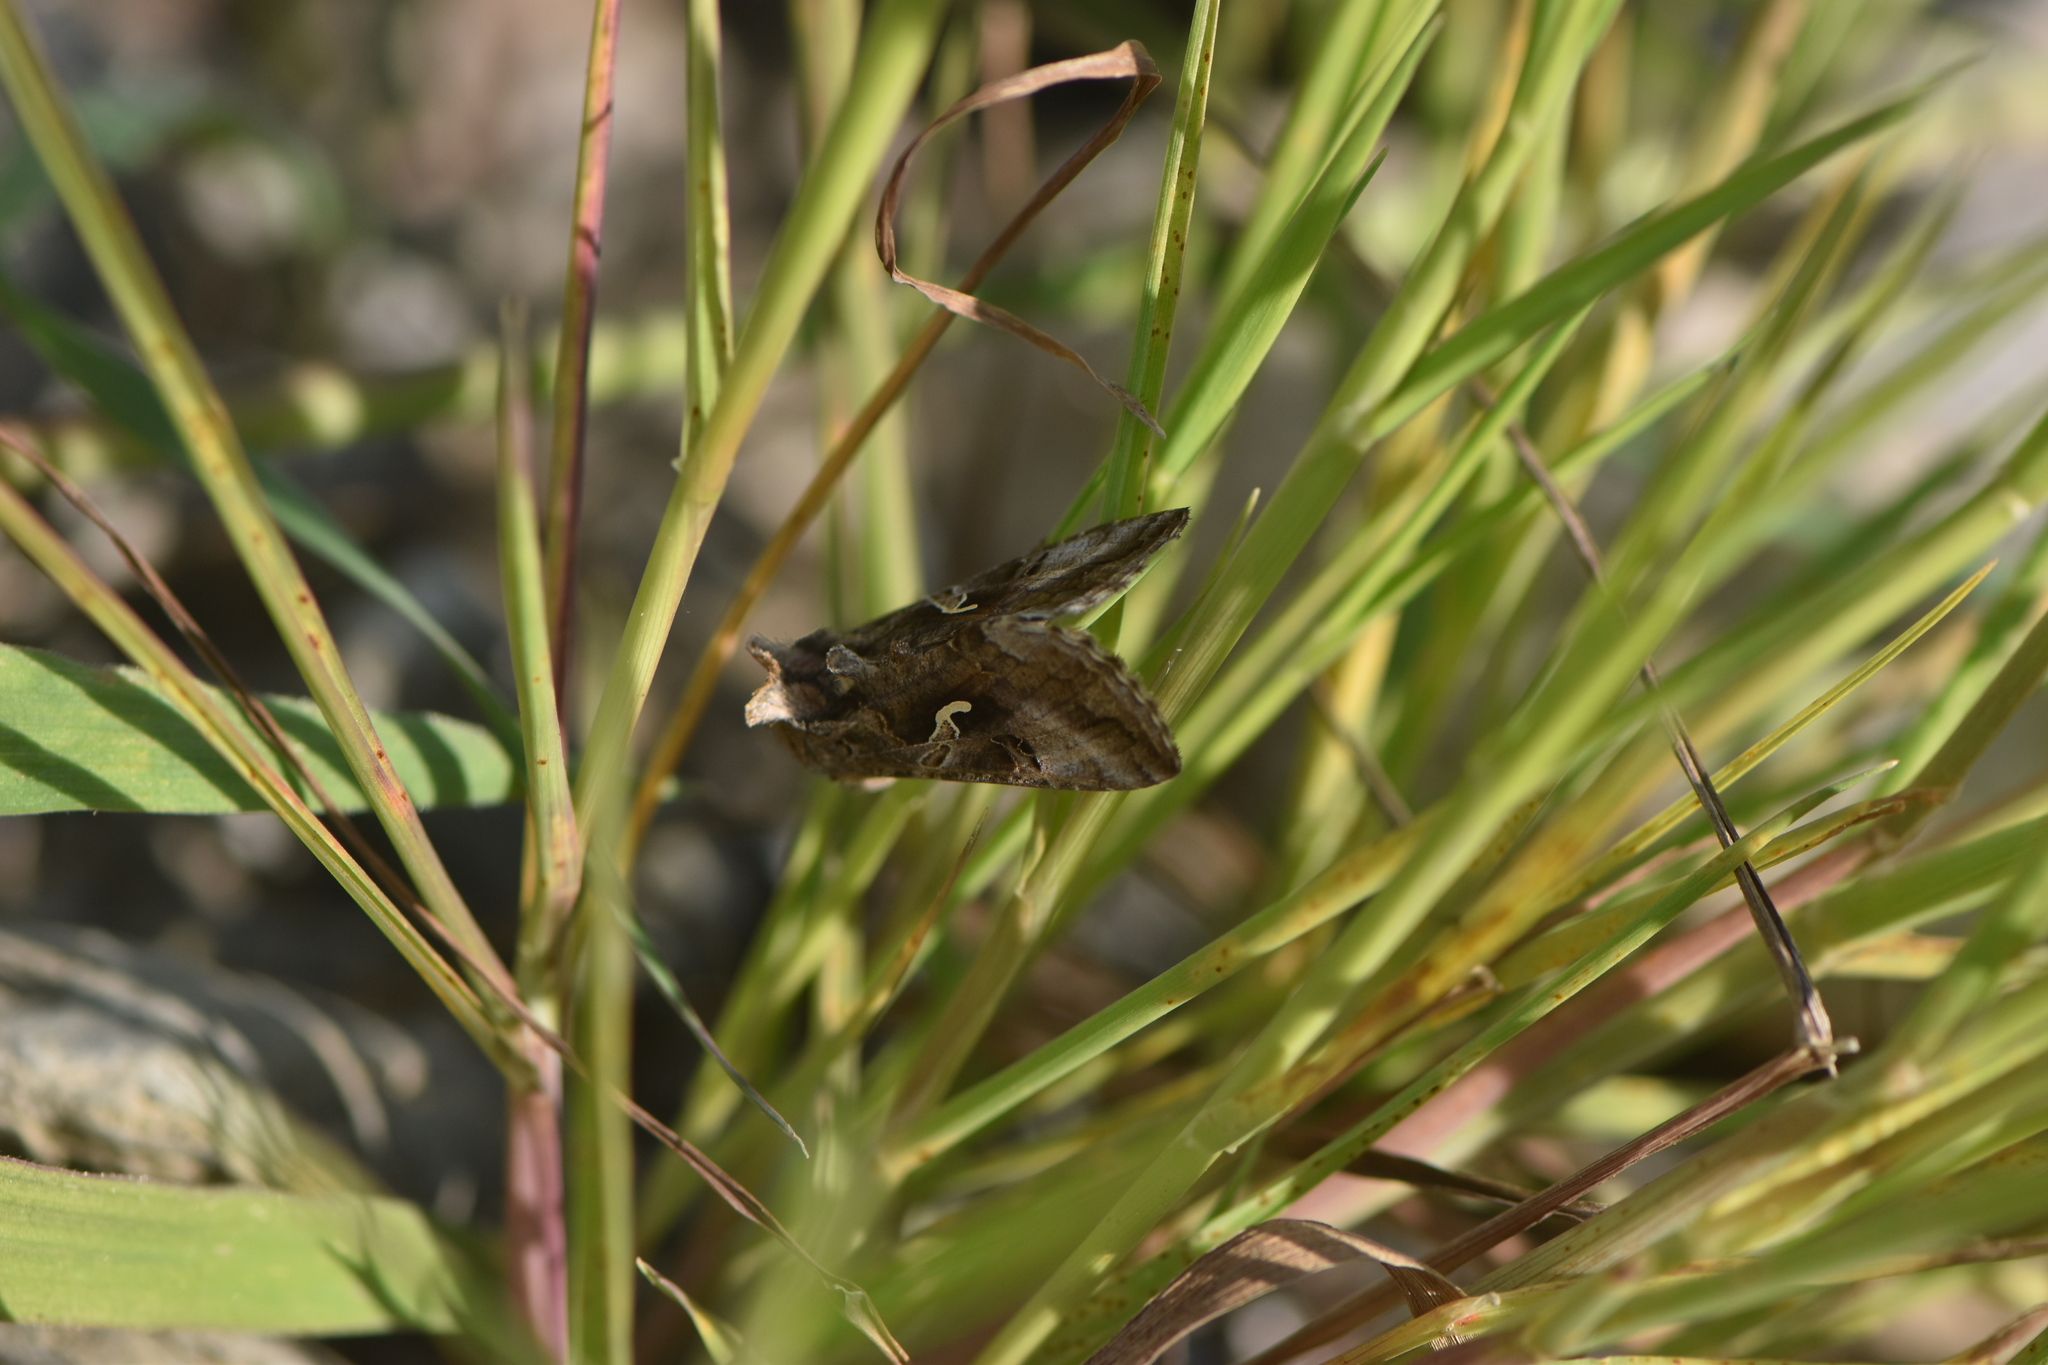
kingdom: Animalia
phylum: Arthropoda
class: Insecta
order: Lepidoptera
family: Noctuidae
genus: Autographa
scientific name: Autographa gamma
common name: Silver y
